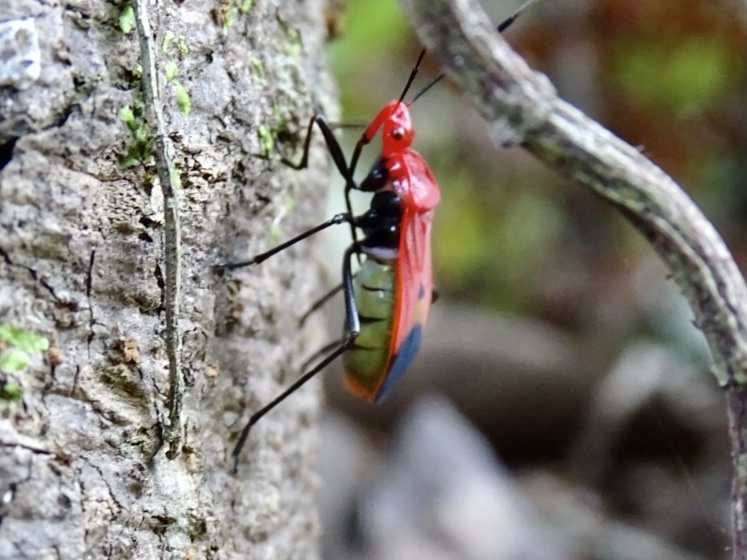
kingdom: Animalia
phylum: Arthropoda
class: Insecta
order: Hemiptera
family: Pyrrhocoridae
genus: Dindymus
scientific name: Dindymus
